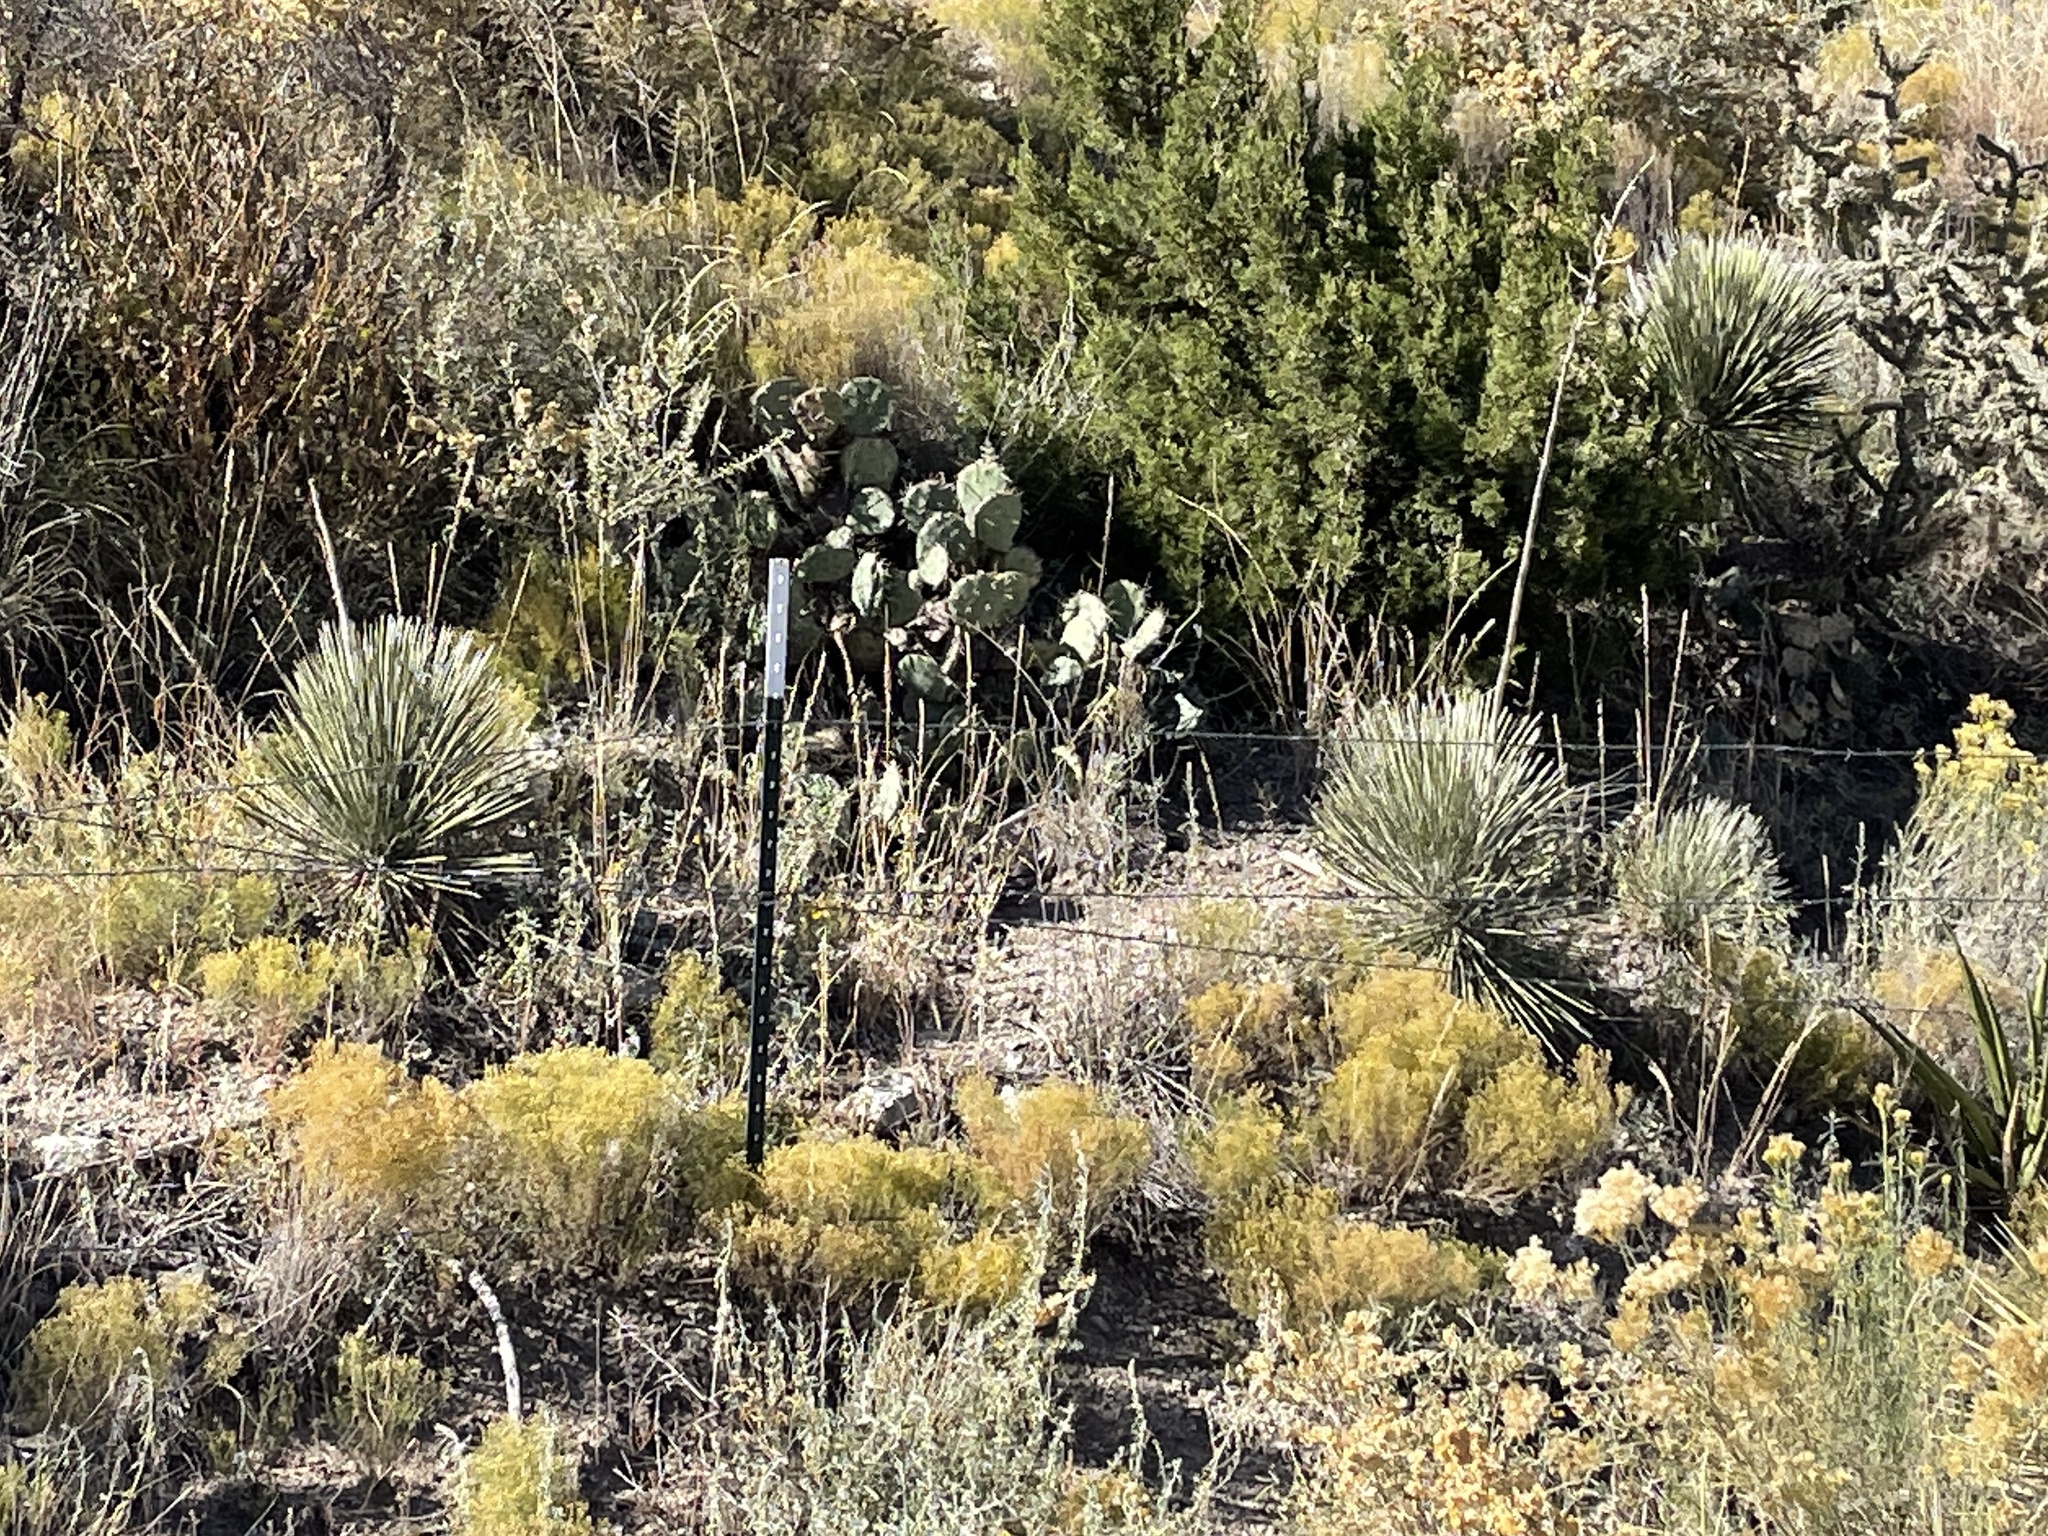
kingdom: Plantae
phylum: Tracheophyta
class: Liliopsida
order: Asparagales
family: Asparagaceae
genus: Yucca
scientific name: Yucca elata
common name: Palmella
